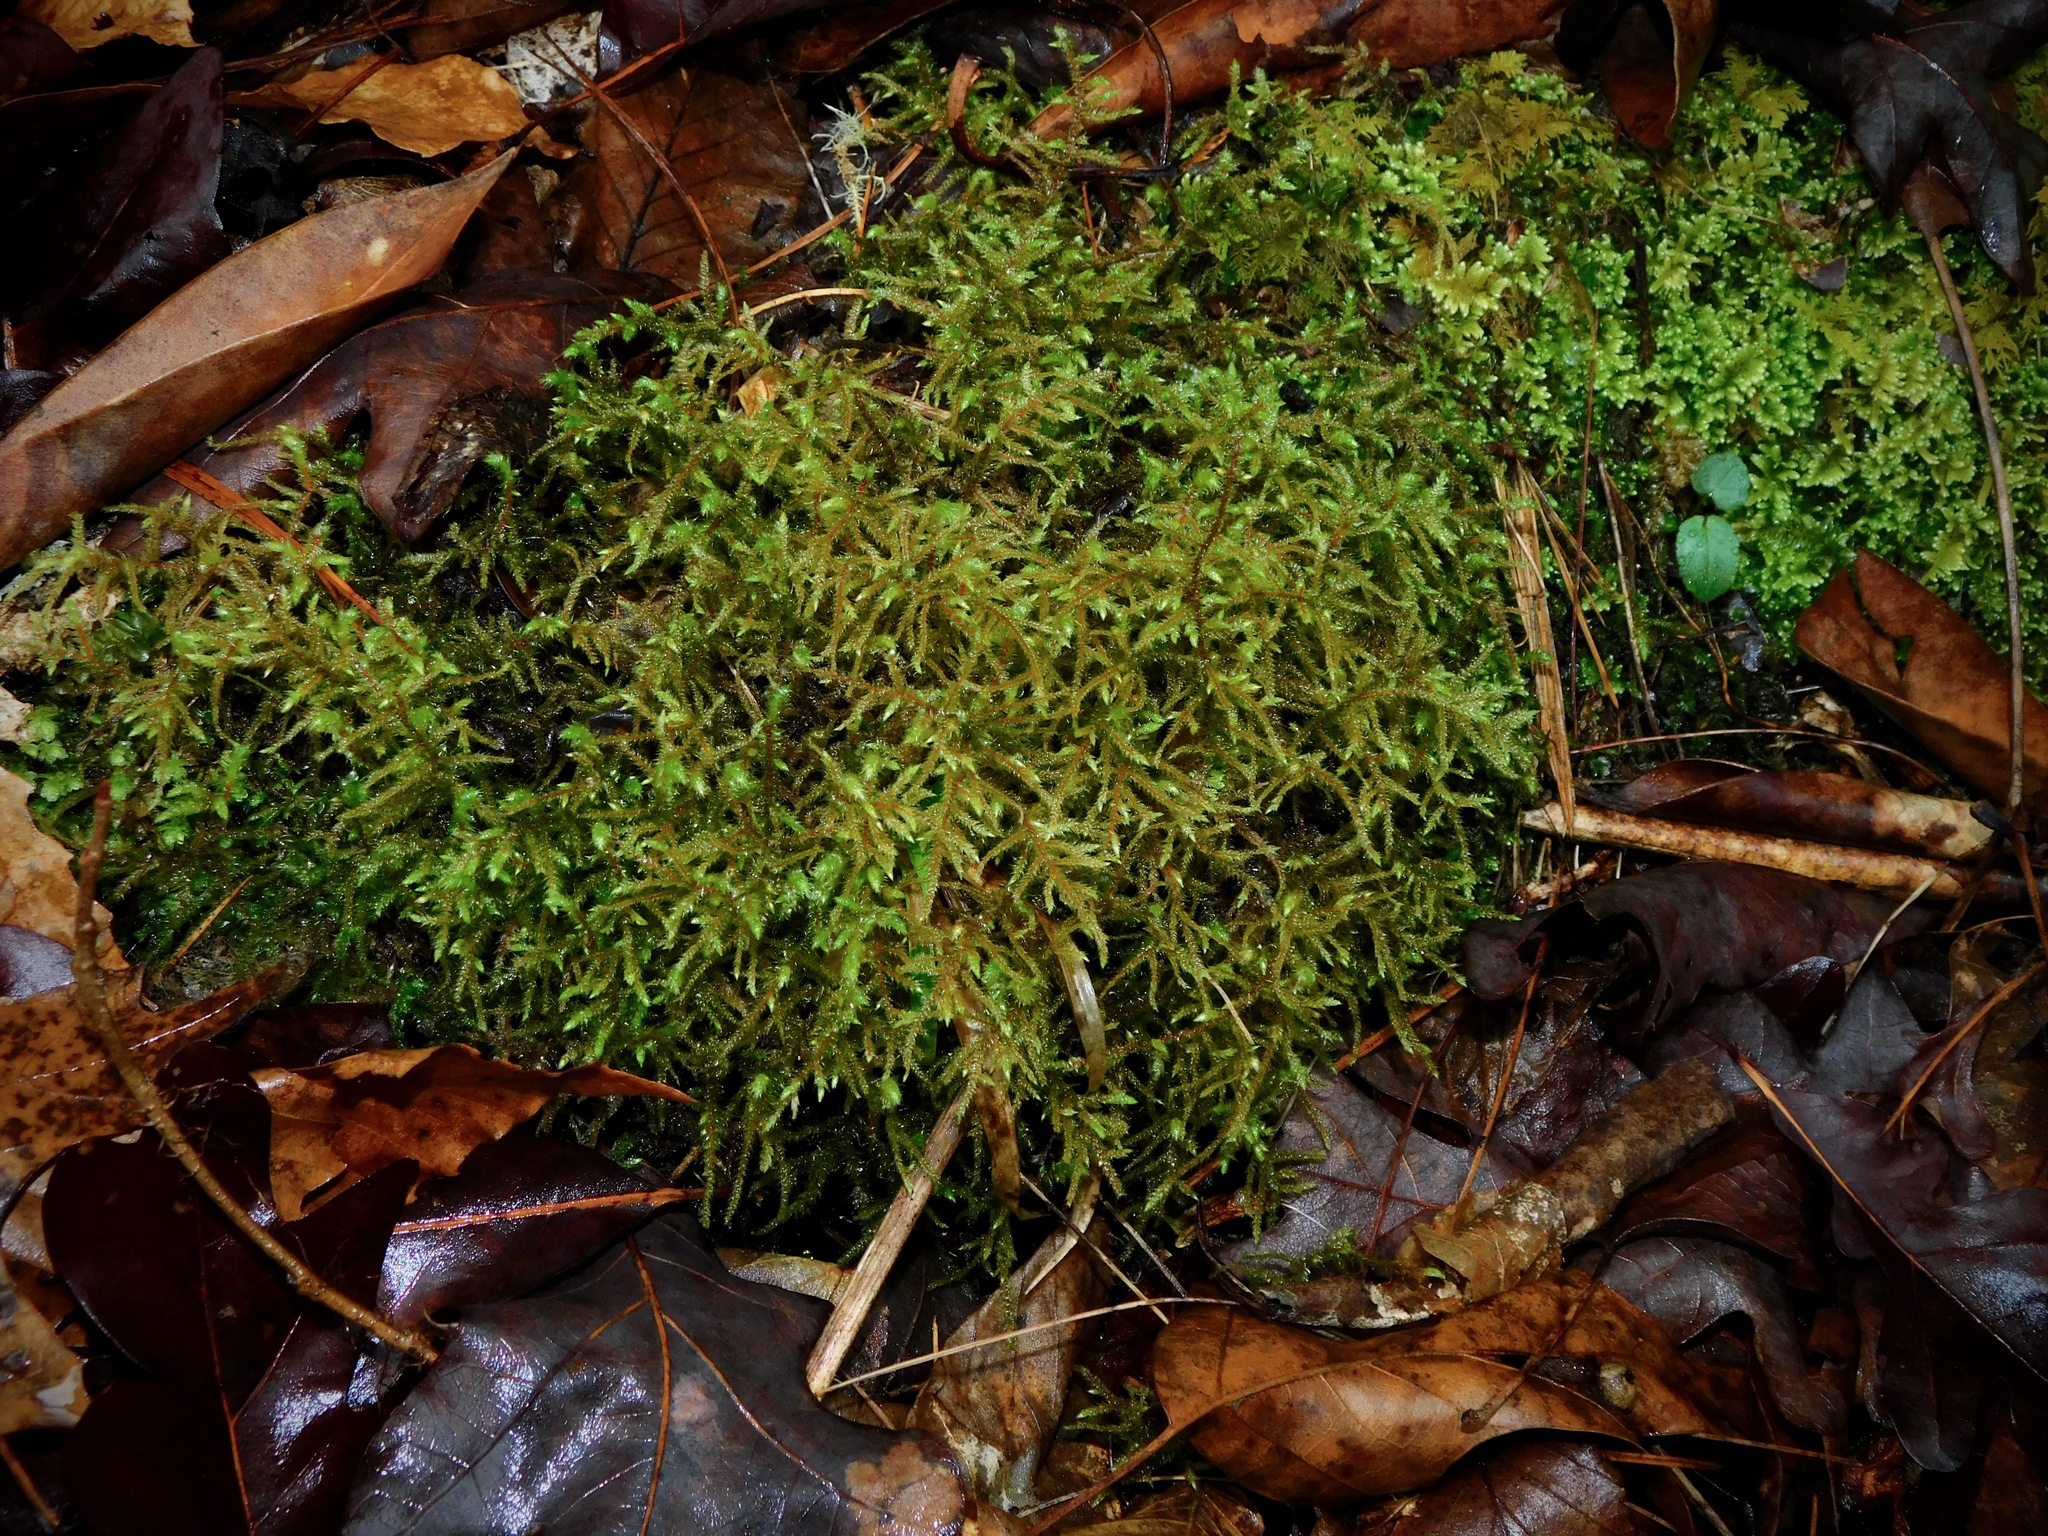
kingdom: Plantae
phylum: Bryophyta
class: Bryopsida
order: Hypnales
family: Hylocomiaceae
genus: Loeskeobryum
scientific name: Loeskeobryum brevirostre
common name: Short-beaked wood-moss
